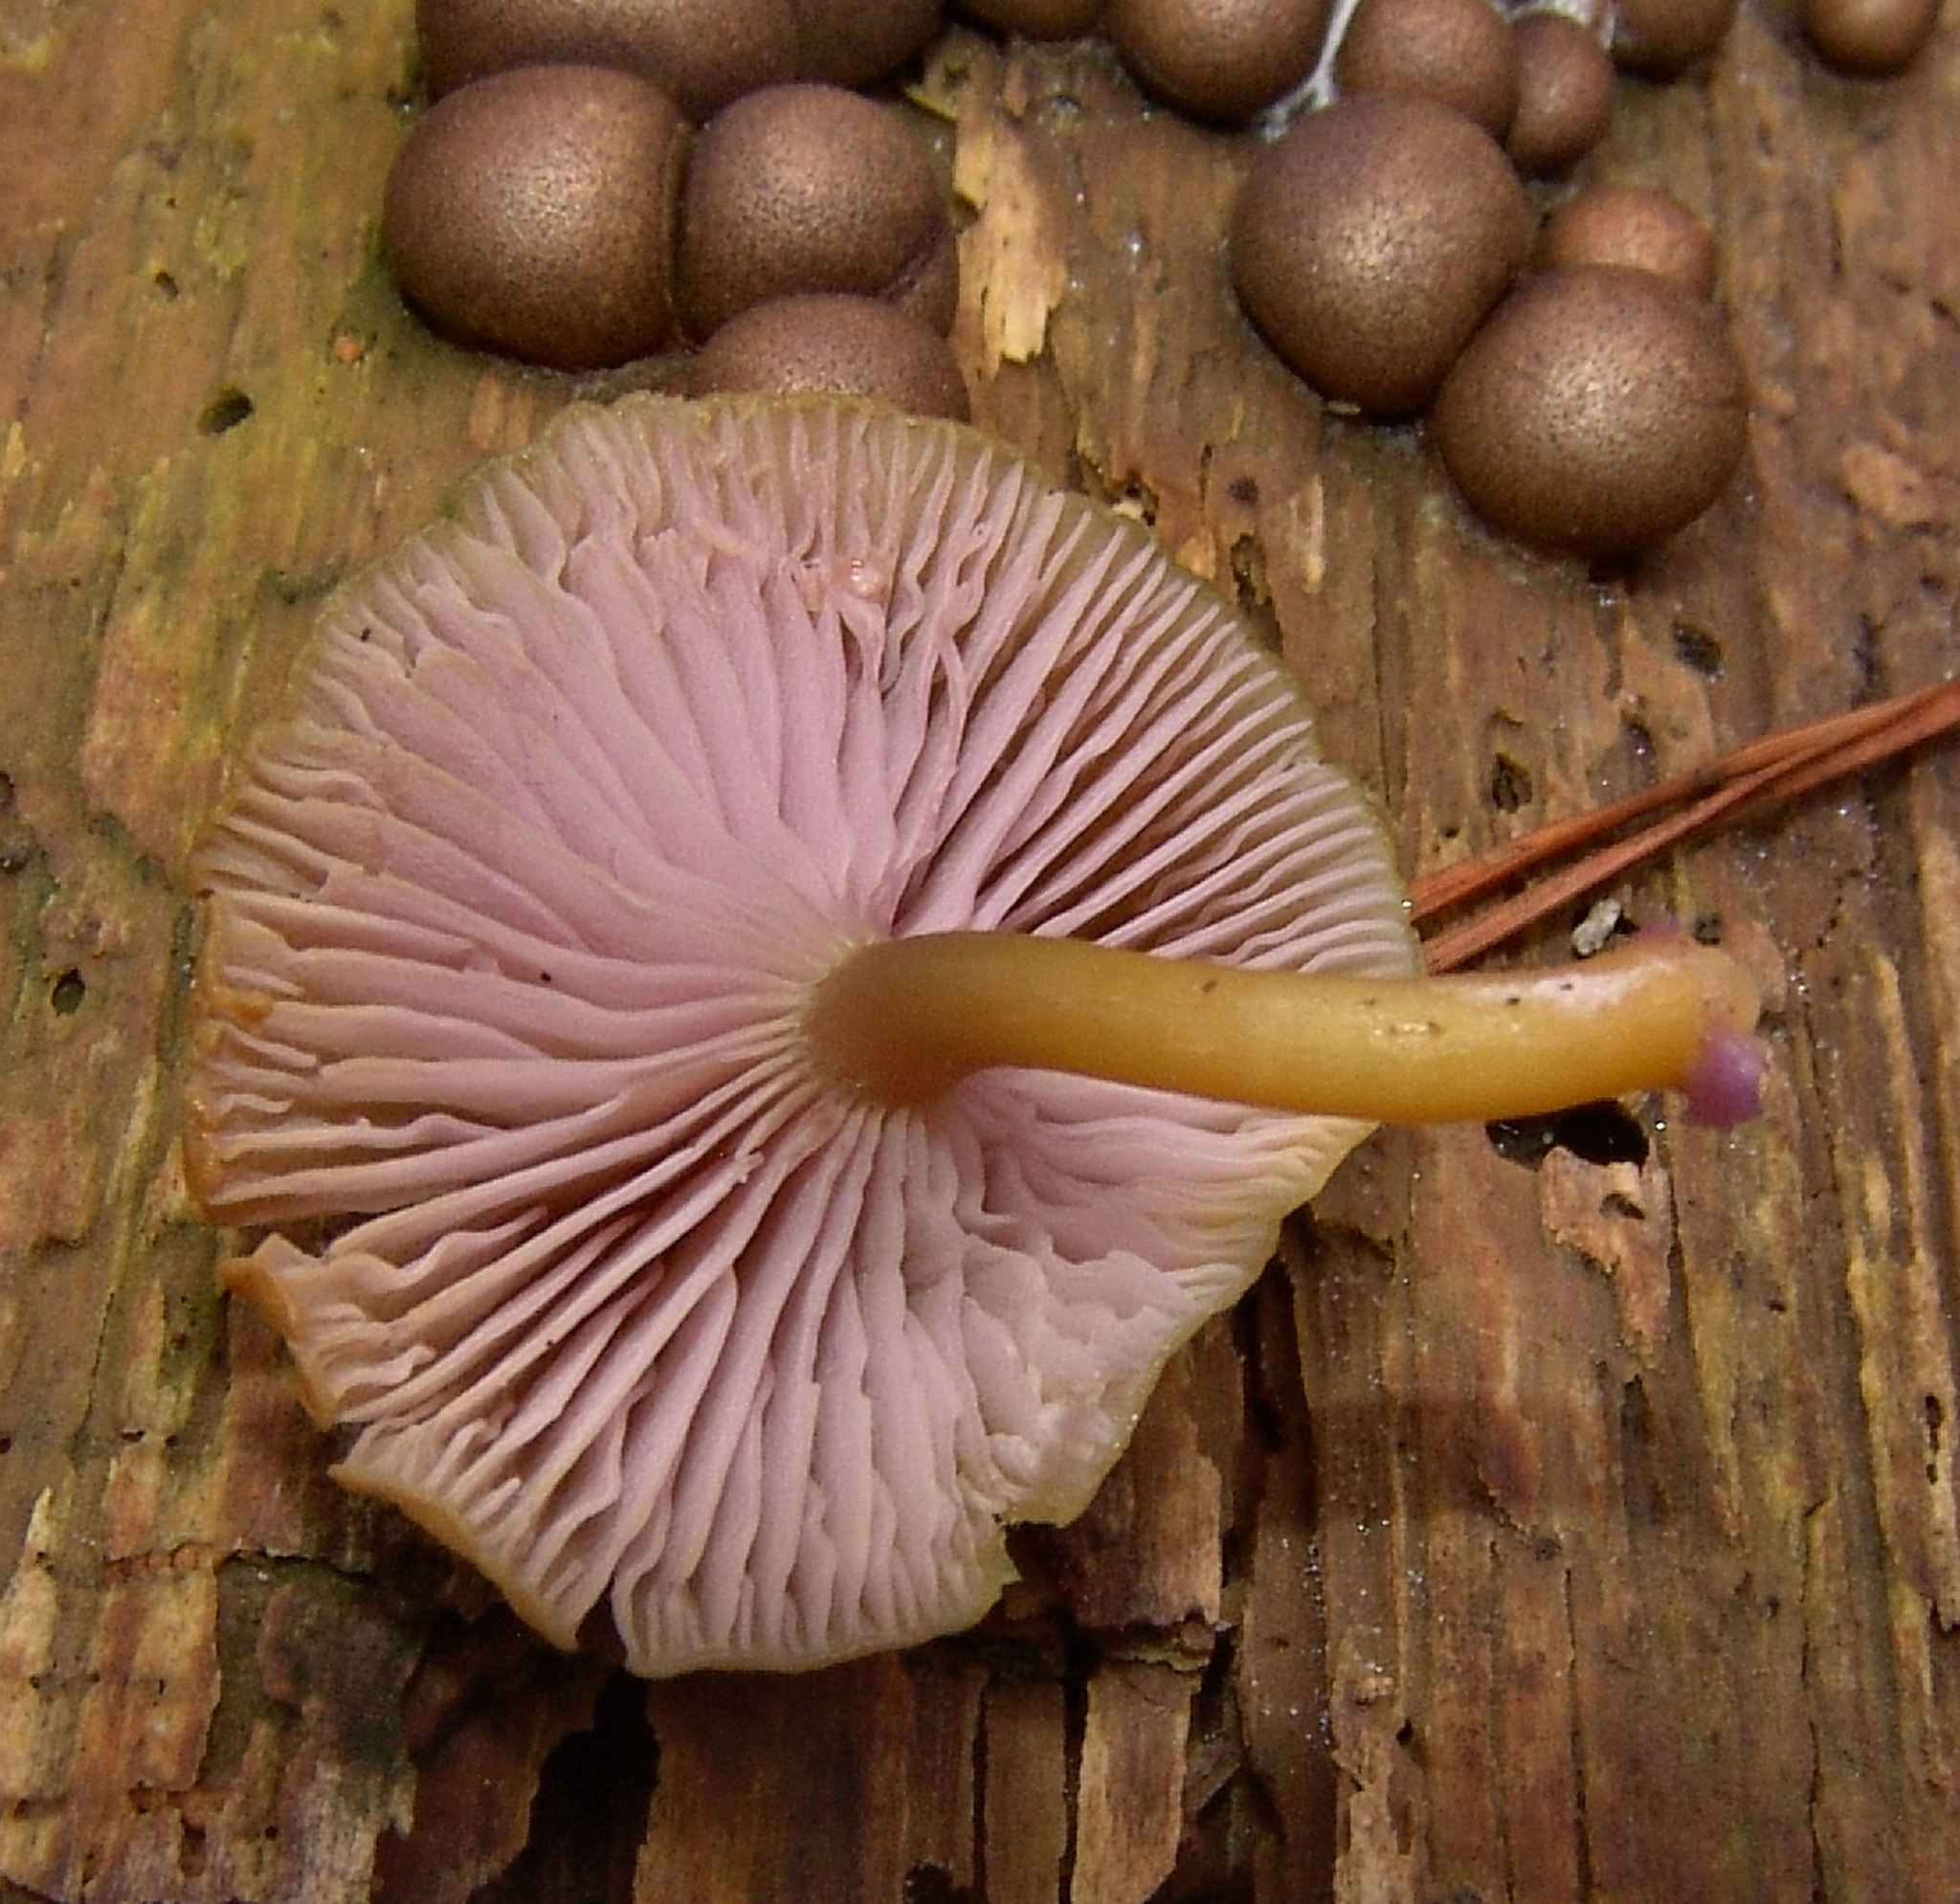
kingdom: Fungi
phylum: Basidiomycota
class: Agaricomycetes
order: Agaricales
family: Hygrophoraceae
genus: Chromosera
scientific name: Chromosera cyanophylla
